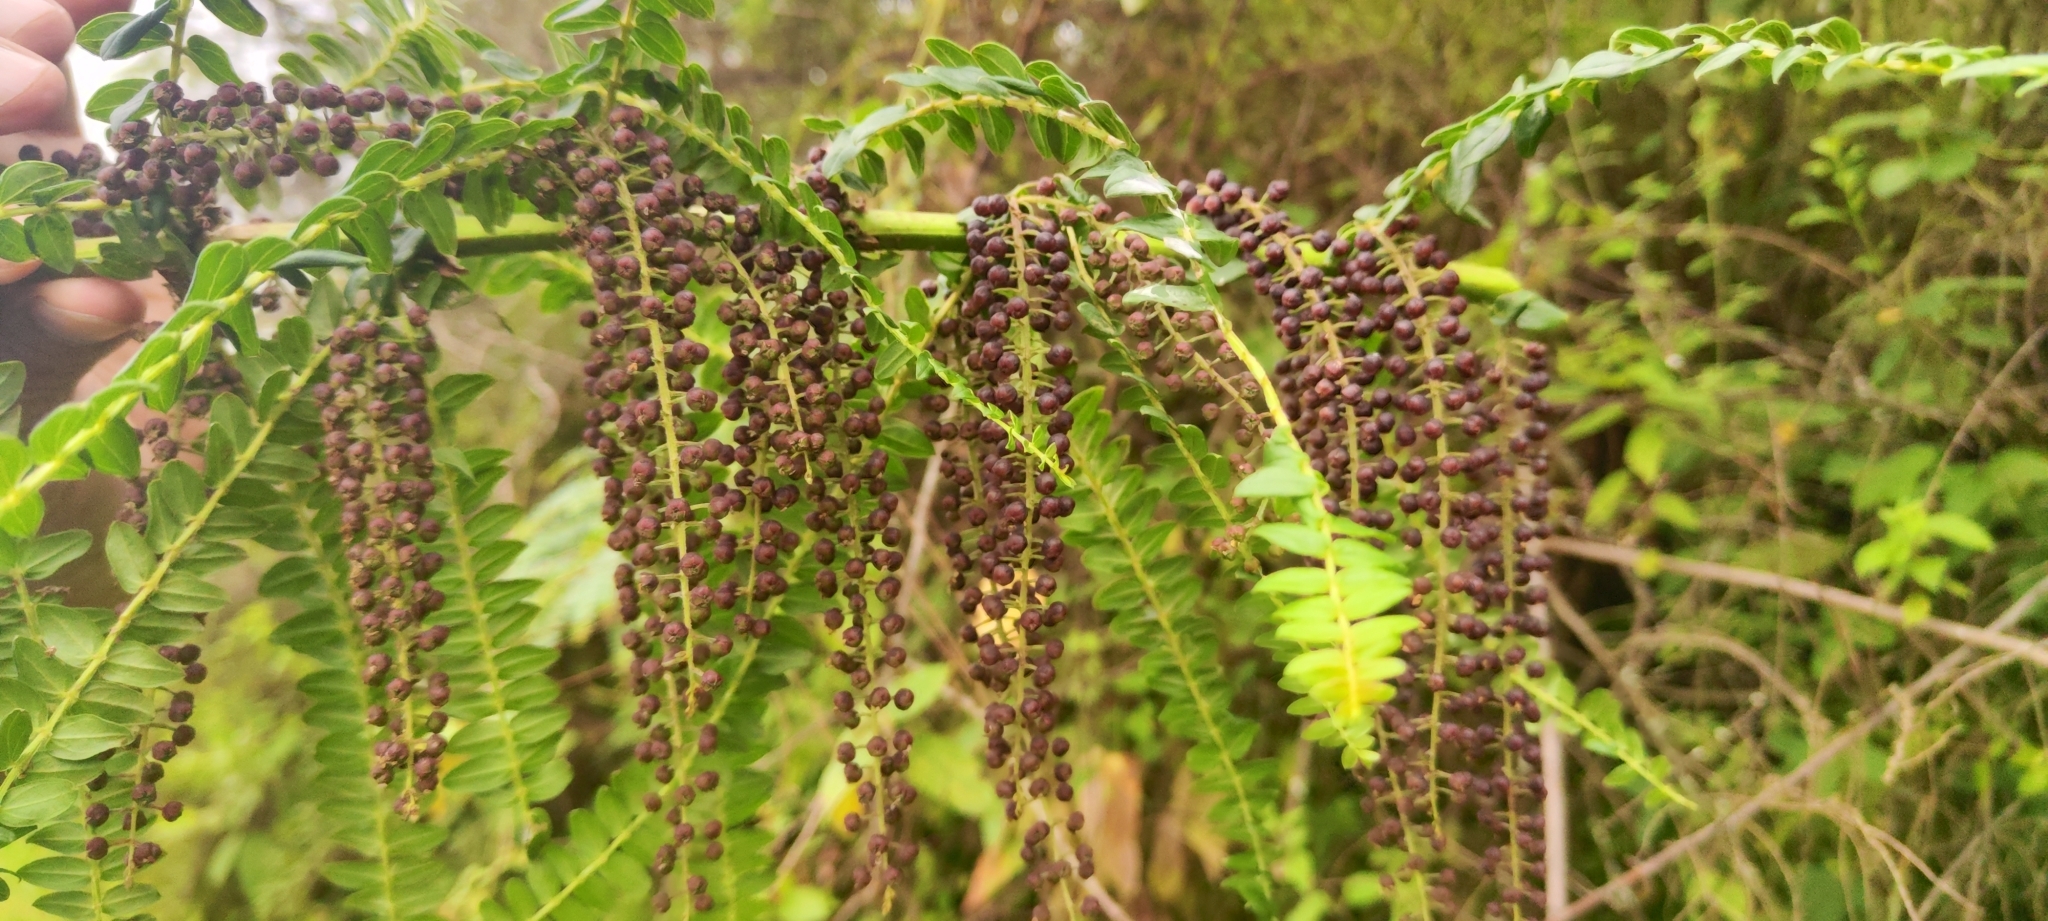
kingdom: Plantae
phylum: Tracheophyta
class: Magnoliopsida
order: Cucurbitales
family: Coriariaceae
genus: Coriaria
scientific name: Coriaria ruscifolia
